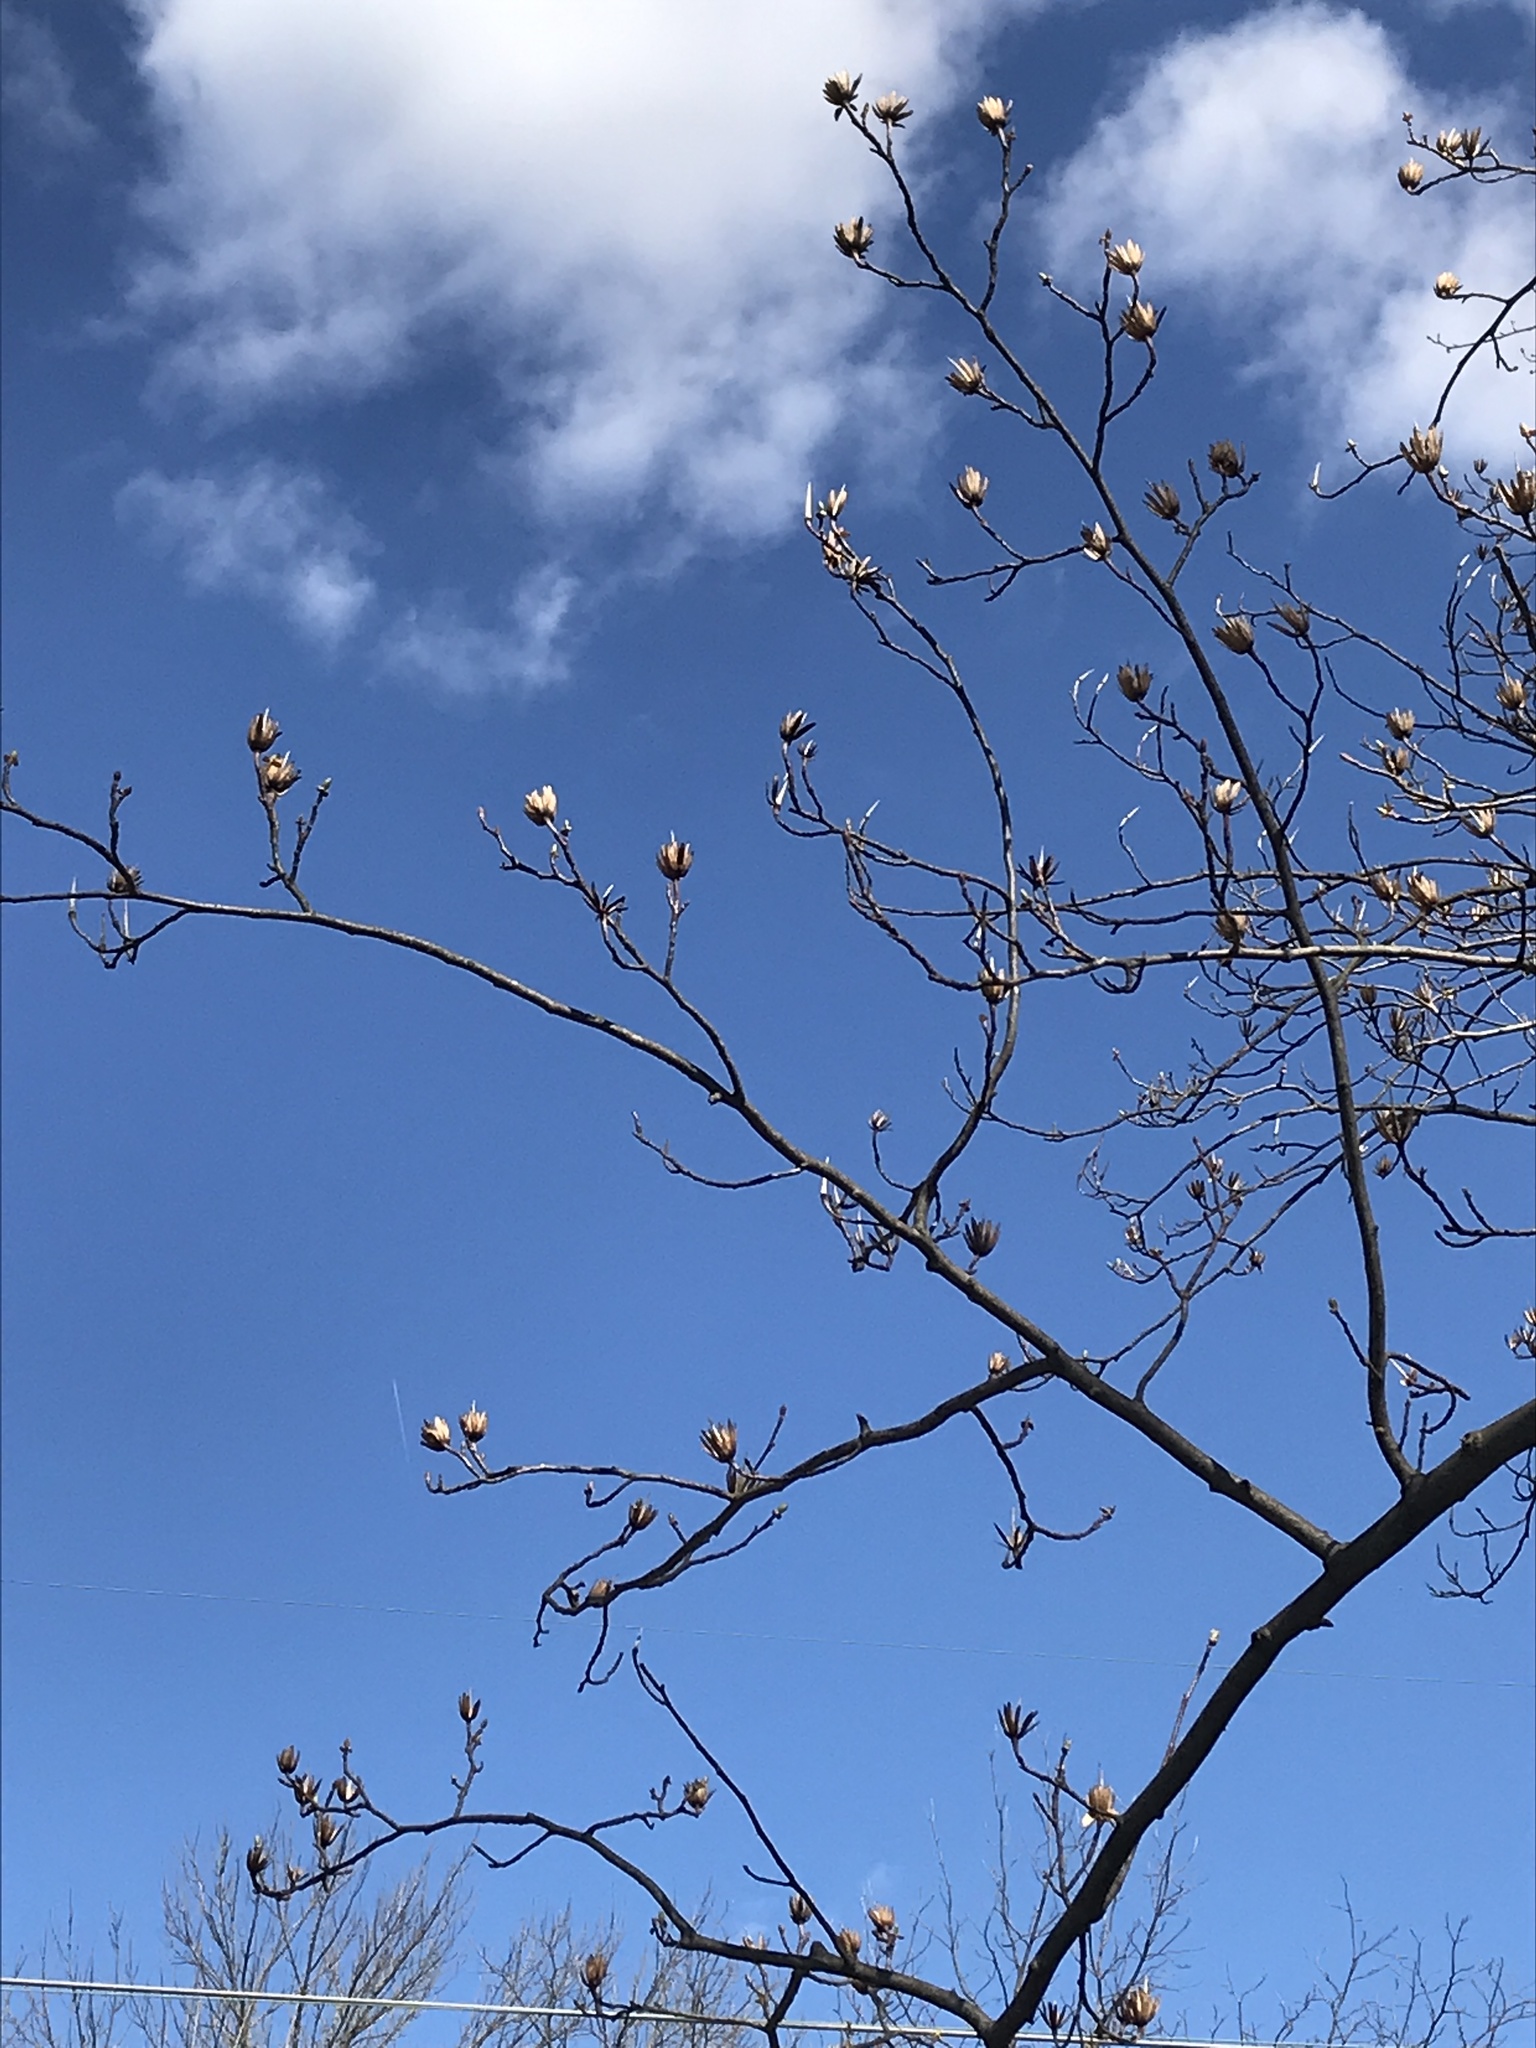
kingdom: Plantae
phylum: Tracheophyta
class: Magnoliopsida
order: Magnoliales
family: Magnoliaceae
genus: Liriodendron
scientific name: Liriodendron tulipifera
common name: Tulip tree
